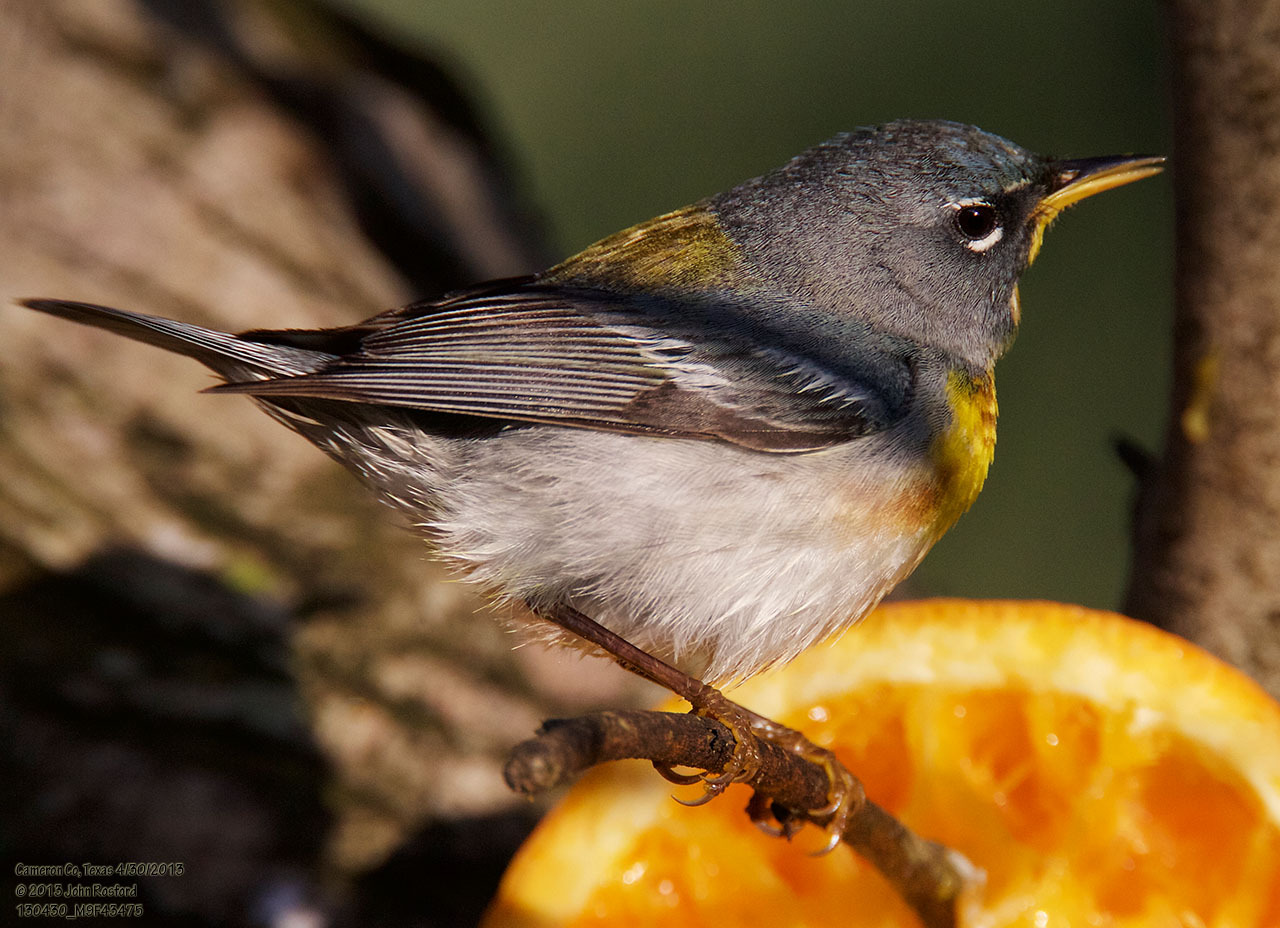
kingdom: Animalia
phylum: Chordata
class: Aves
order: Passeriformes
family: Parulidae
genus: Setophaga
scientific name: Setophaga americana
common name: Northern parula
